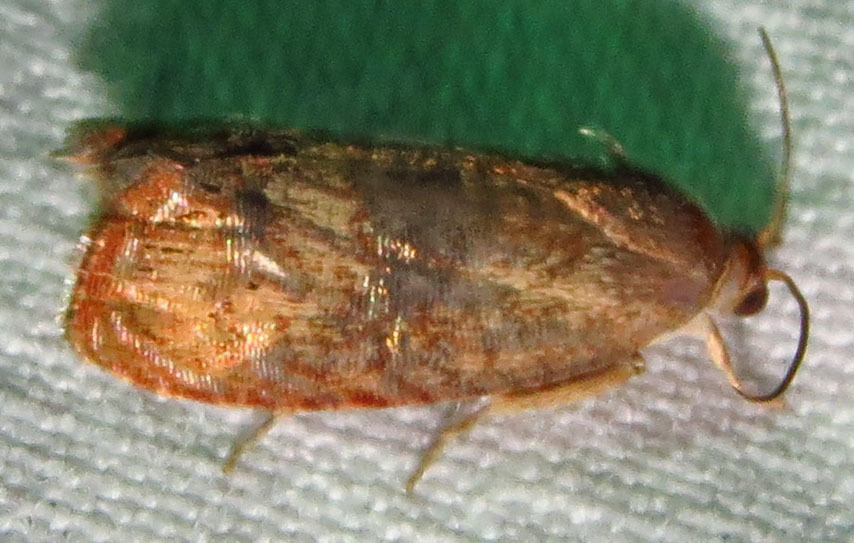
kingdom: Animalia
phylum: Arthropoda
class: Insecta
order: Lepidoptera
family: Tortricidae
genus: Cydia
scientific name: Cydia latiferreana
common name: Filbertworm moth
